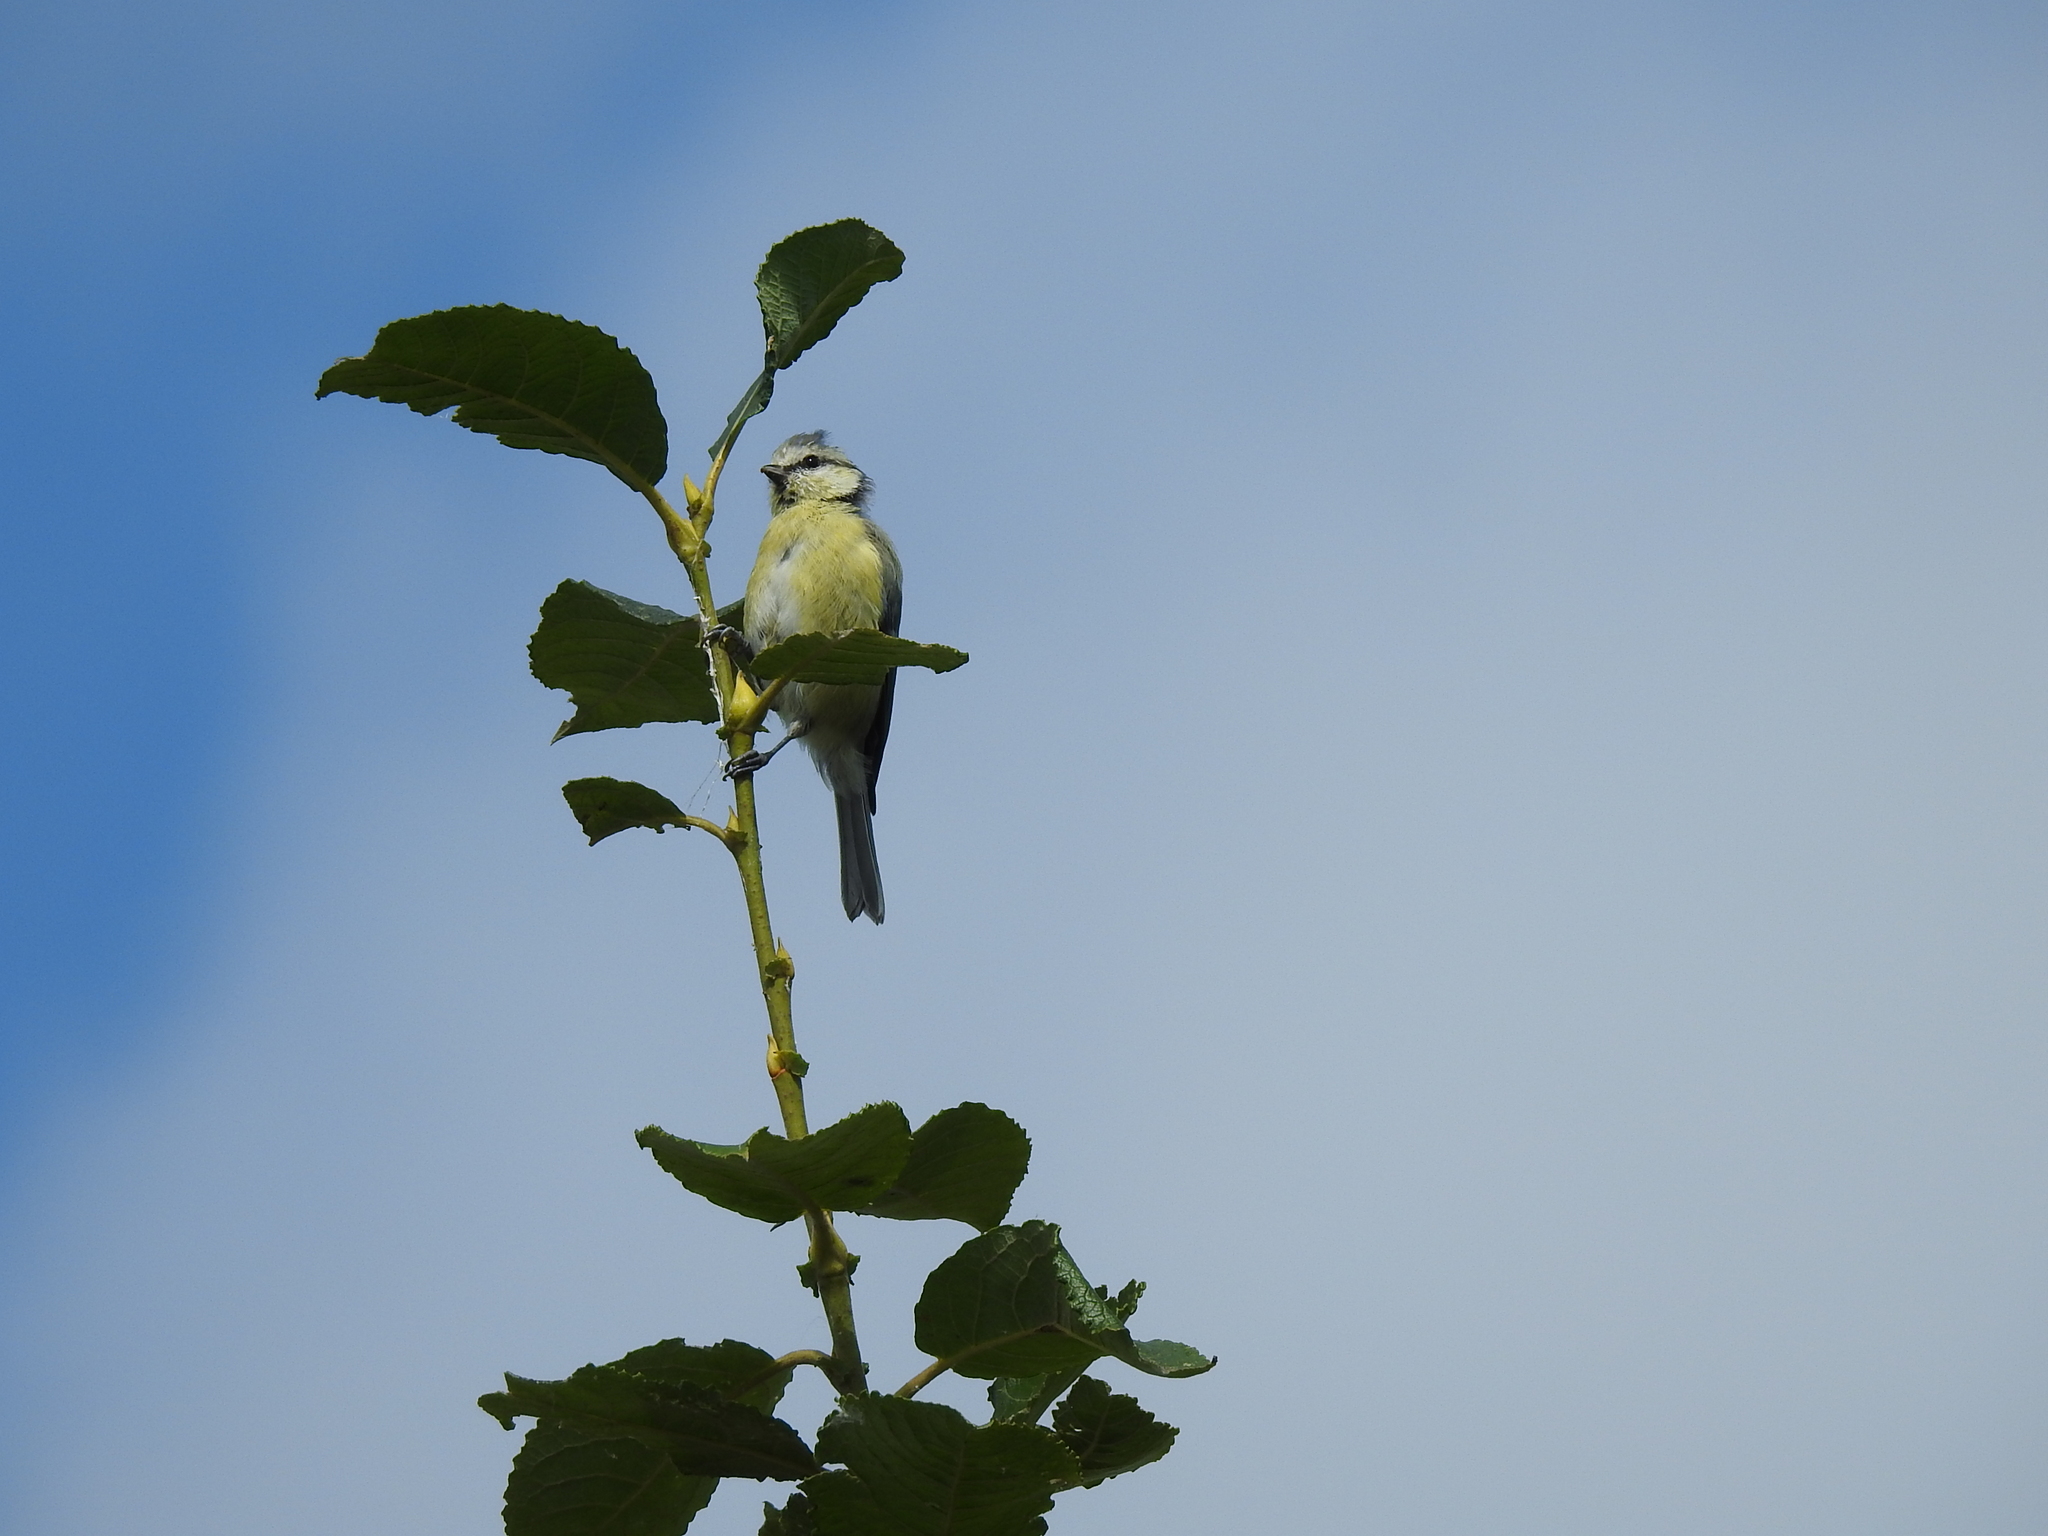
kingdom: Animalia
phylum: Chordata
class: Aves
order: Passeriformes
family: Paridae
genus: Cyanistes
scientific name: Cyanistes caeruleus
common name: Eurasian blue tit
